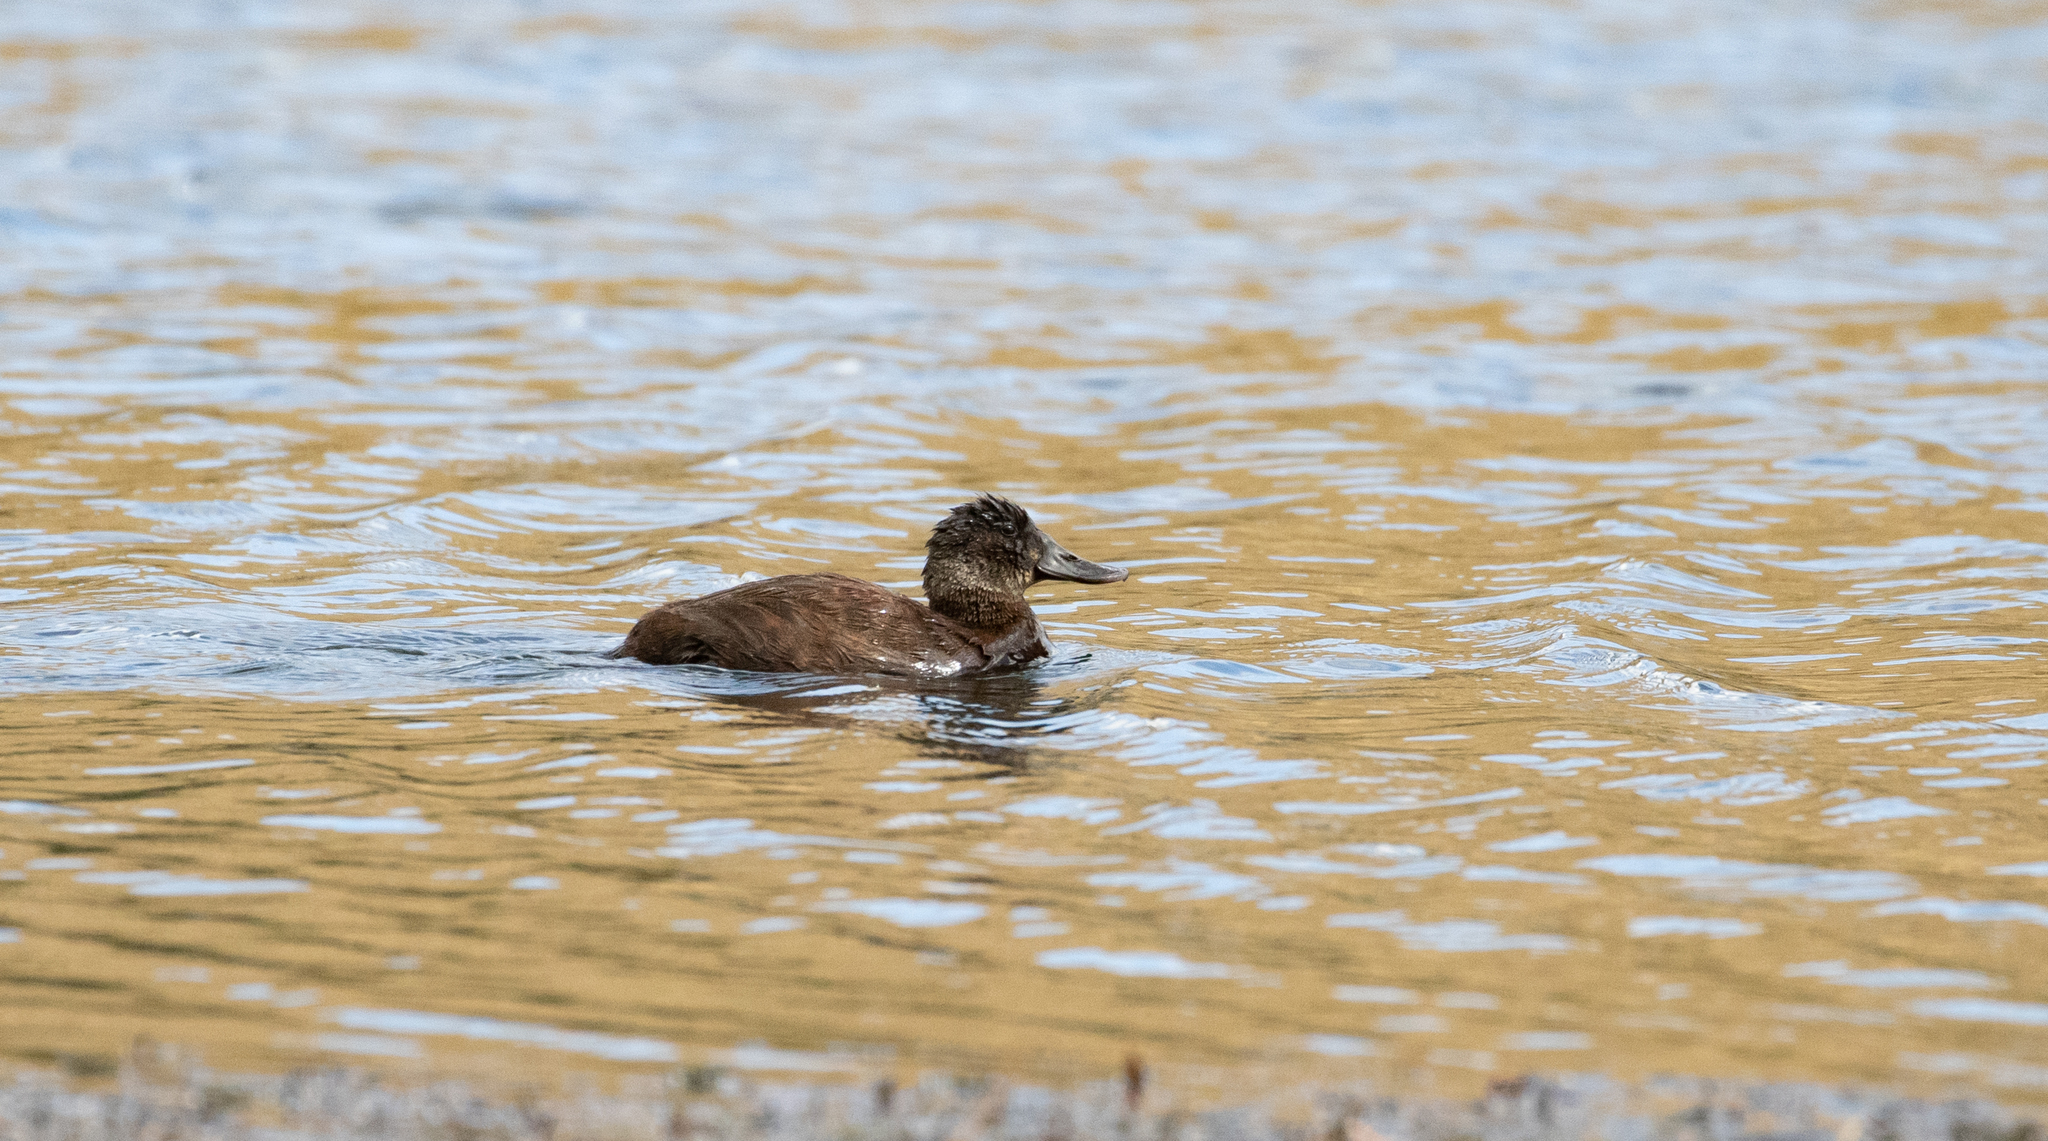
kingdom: Animalia
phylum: Chordata
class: Aves
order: Anseriformes
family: Anatidae
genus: Oxyura
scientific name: Oxyura ferruginea
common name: Andean duck
